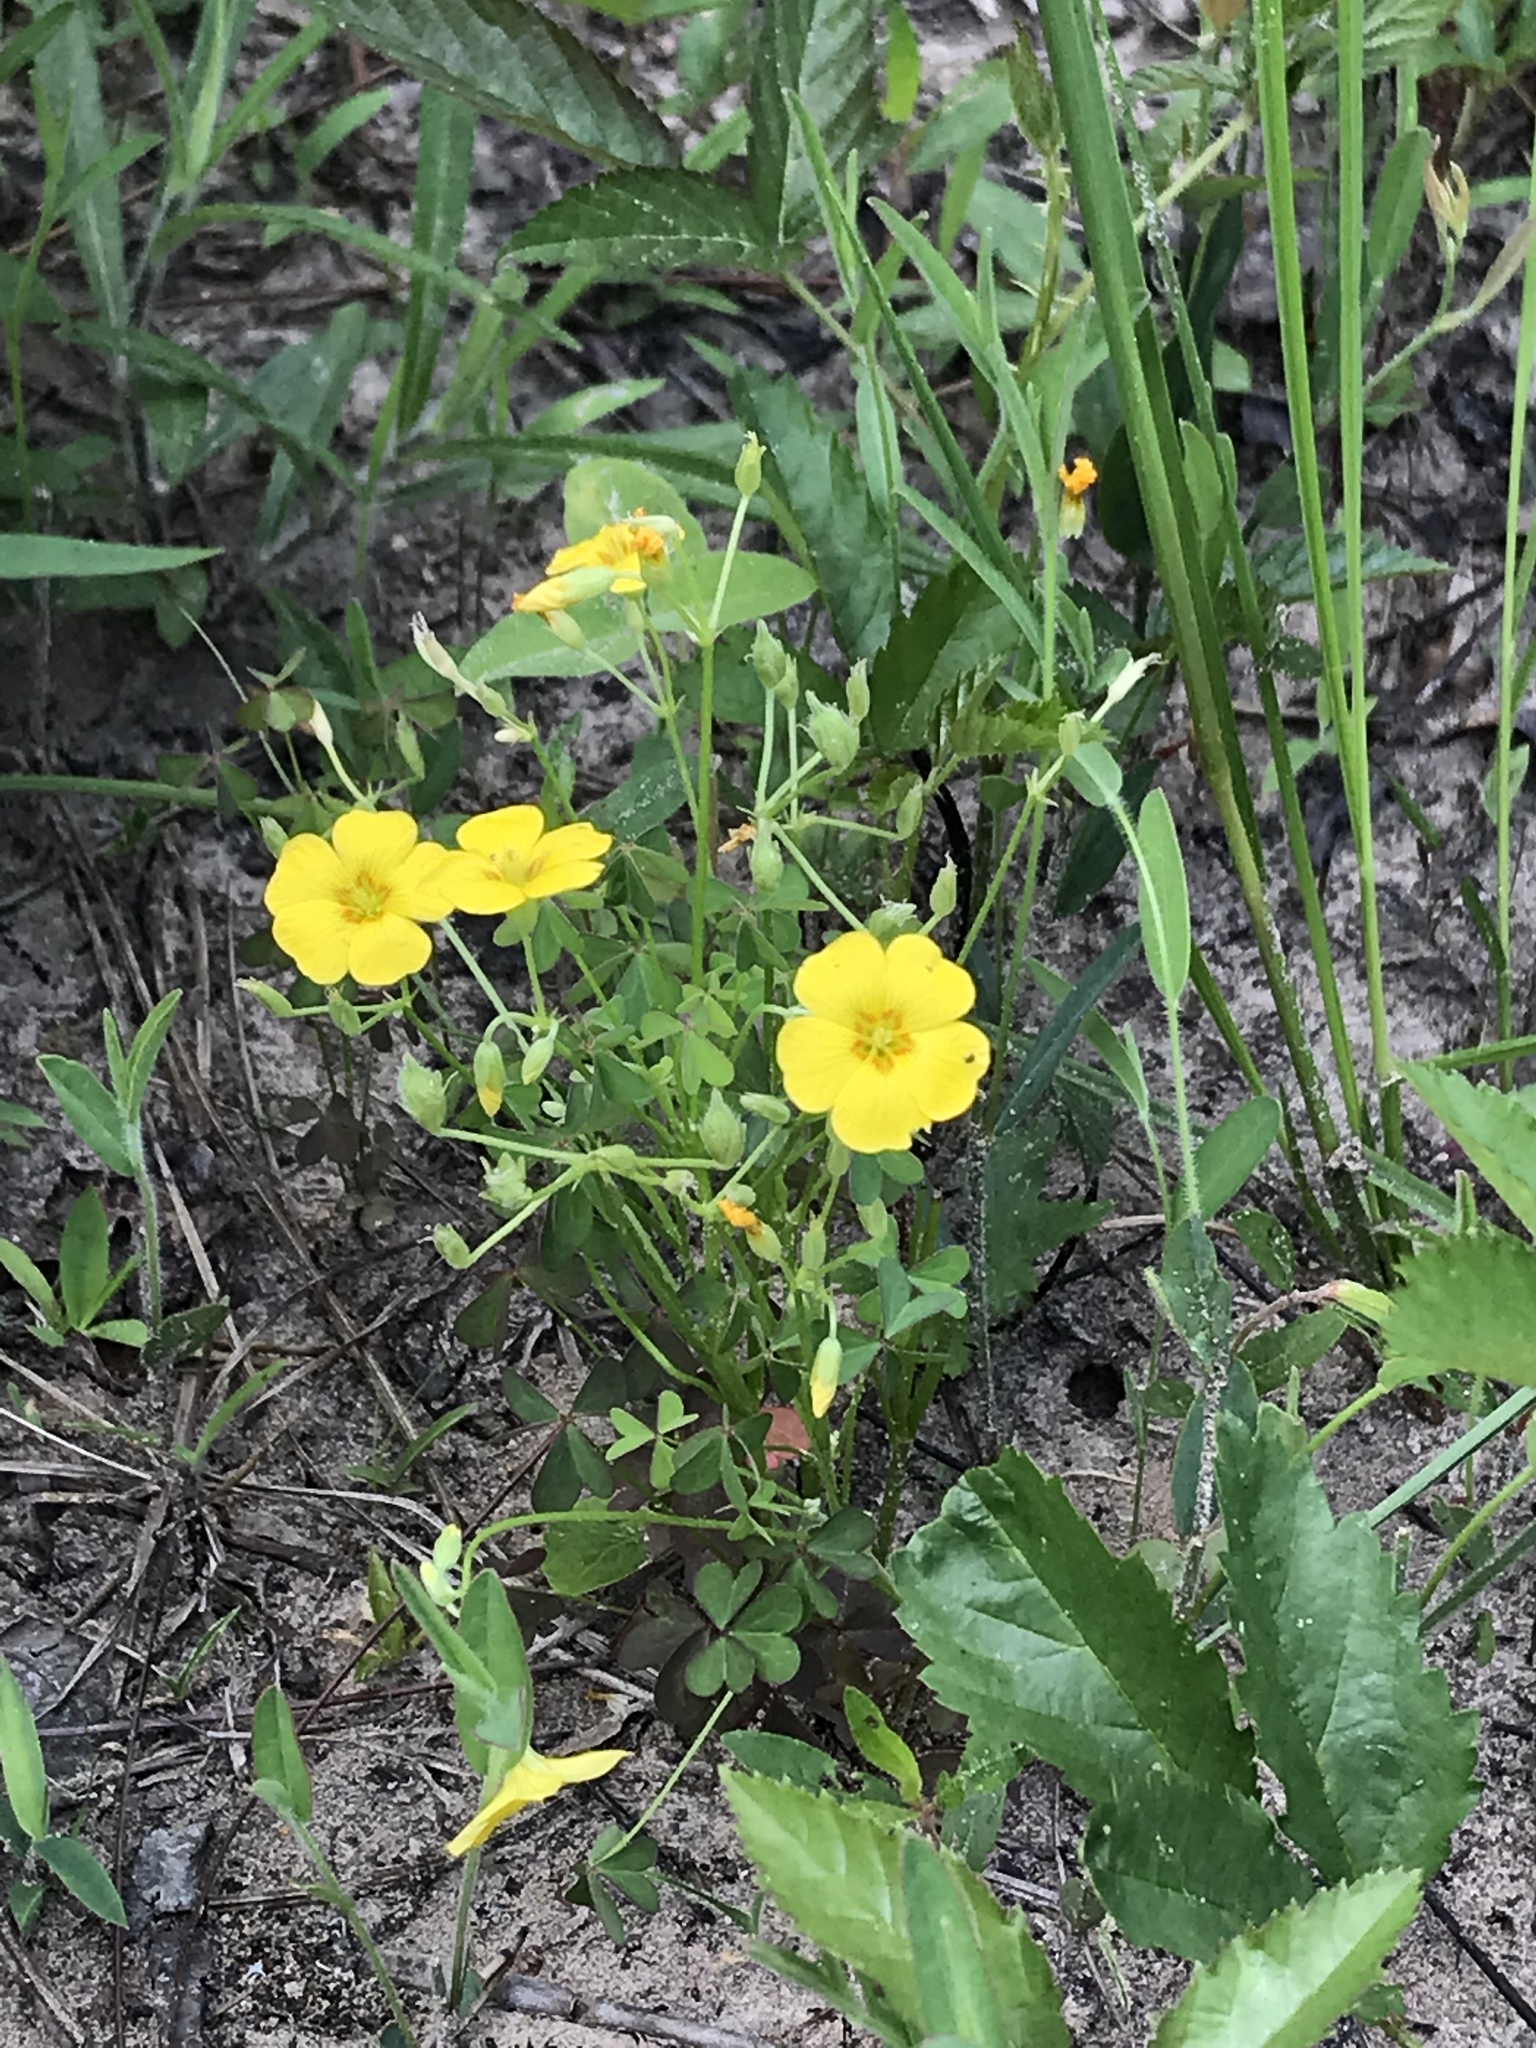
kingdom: Plantae
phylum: Tracheophyta
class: Magnoliopsida
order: Oxalidales
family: Oxalidaceae
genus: Oxalis
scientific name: Oxalis texana
